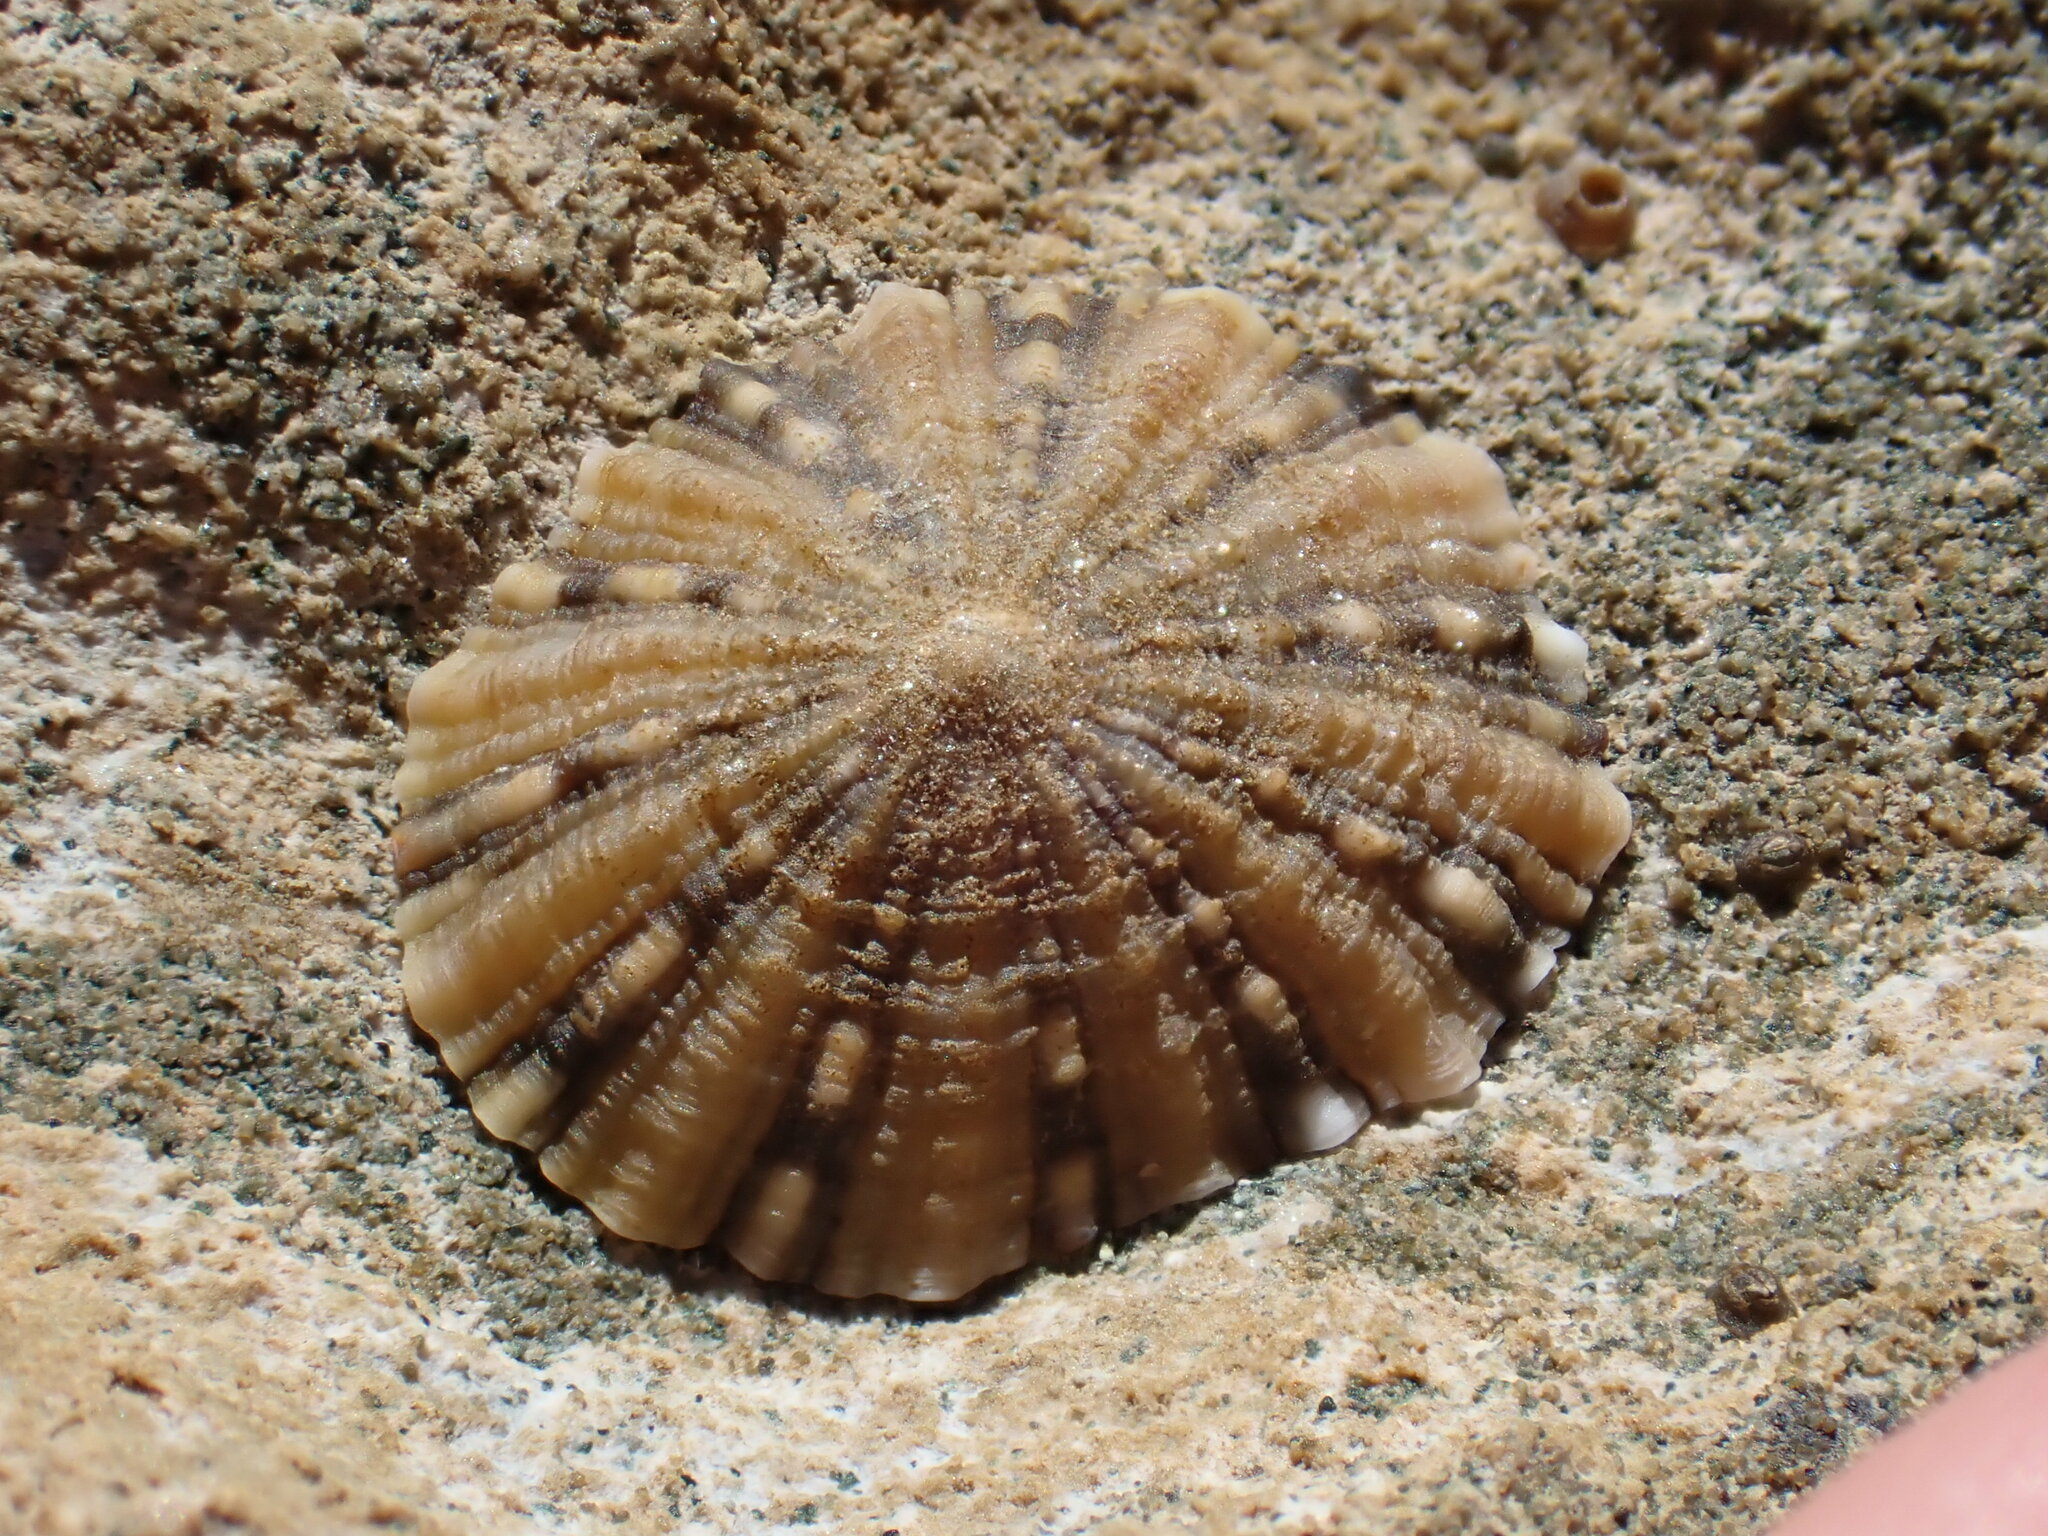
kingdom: Animalia
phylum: Mollusca
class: Gastropoda
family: Nacellidae
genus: Cellana
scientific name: Cellana ornata
